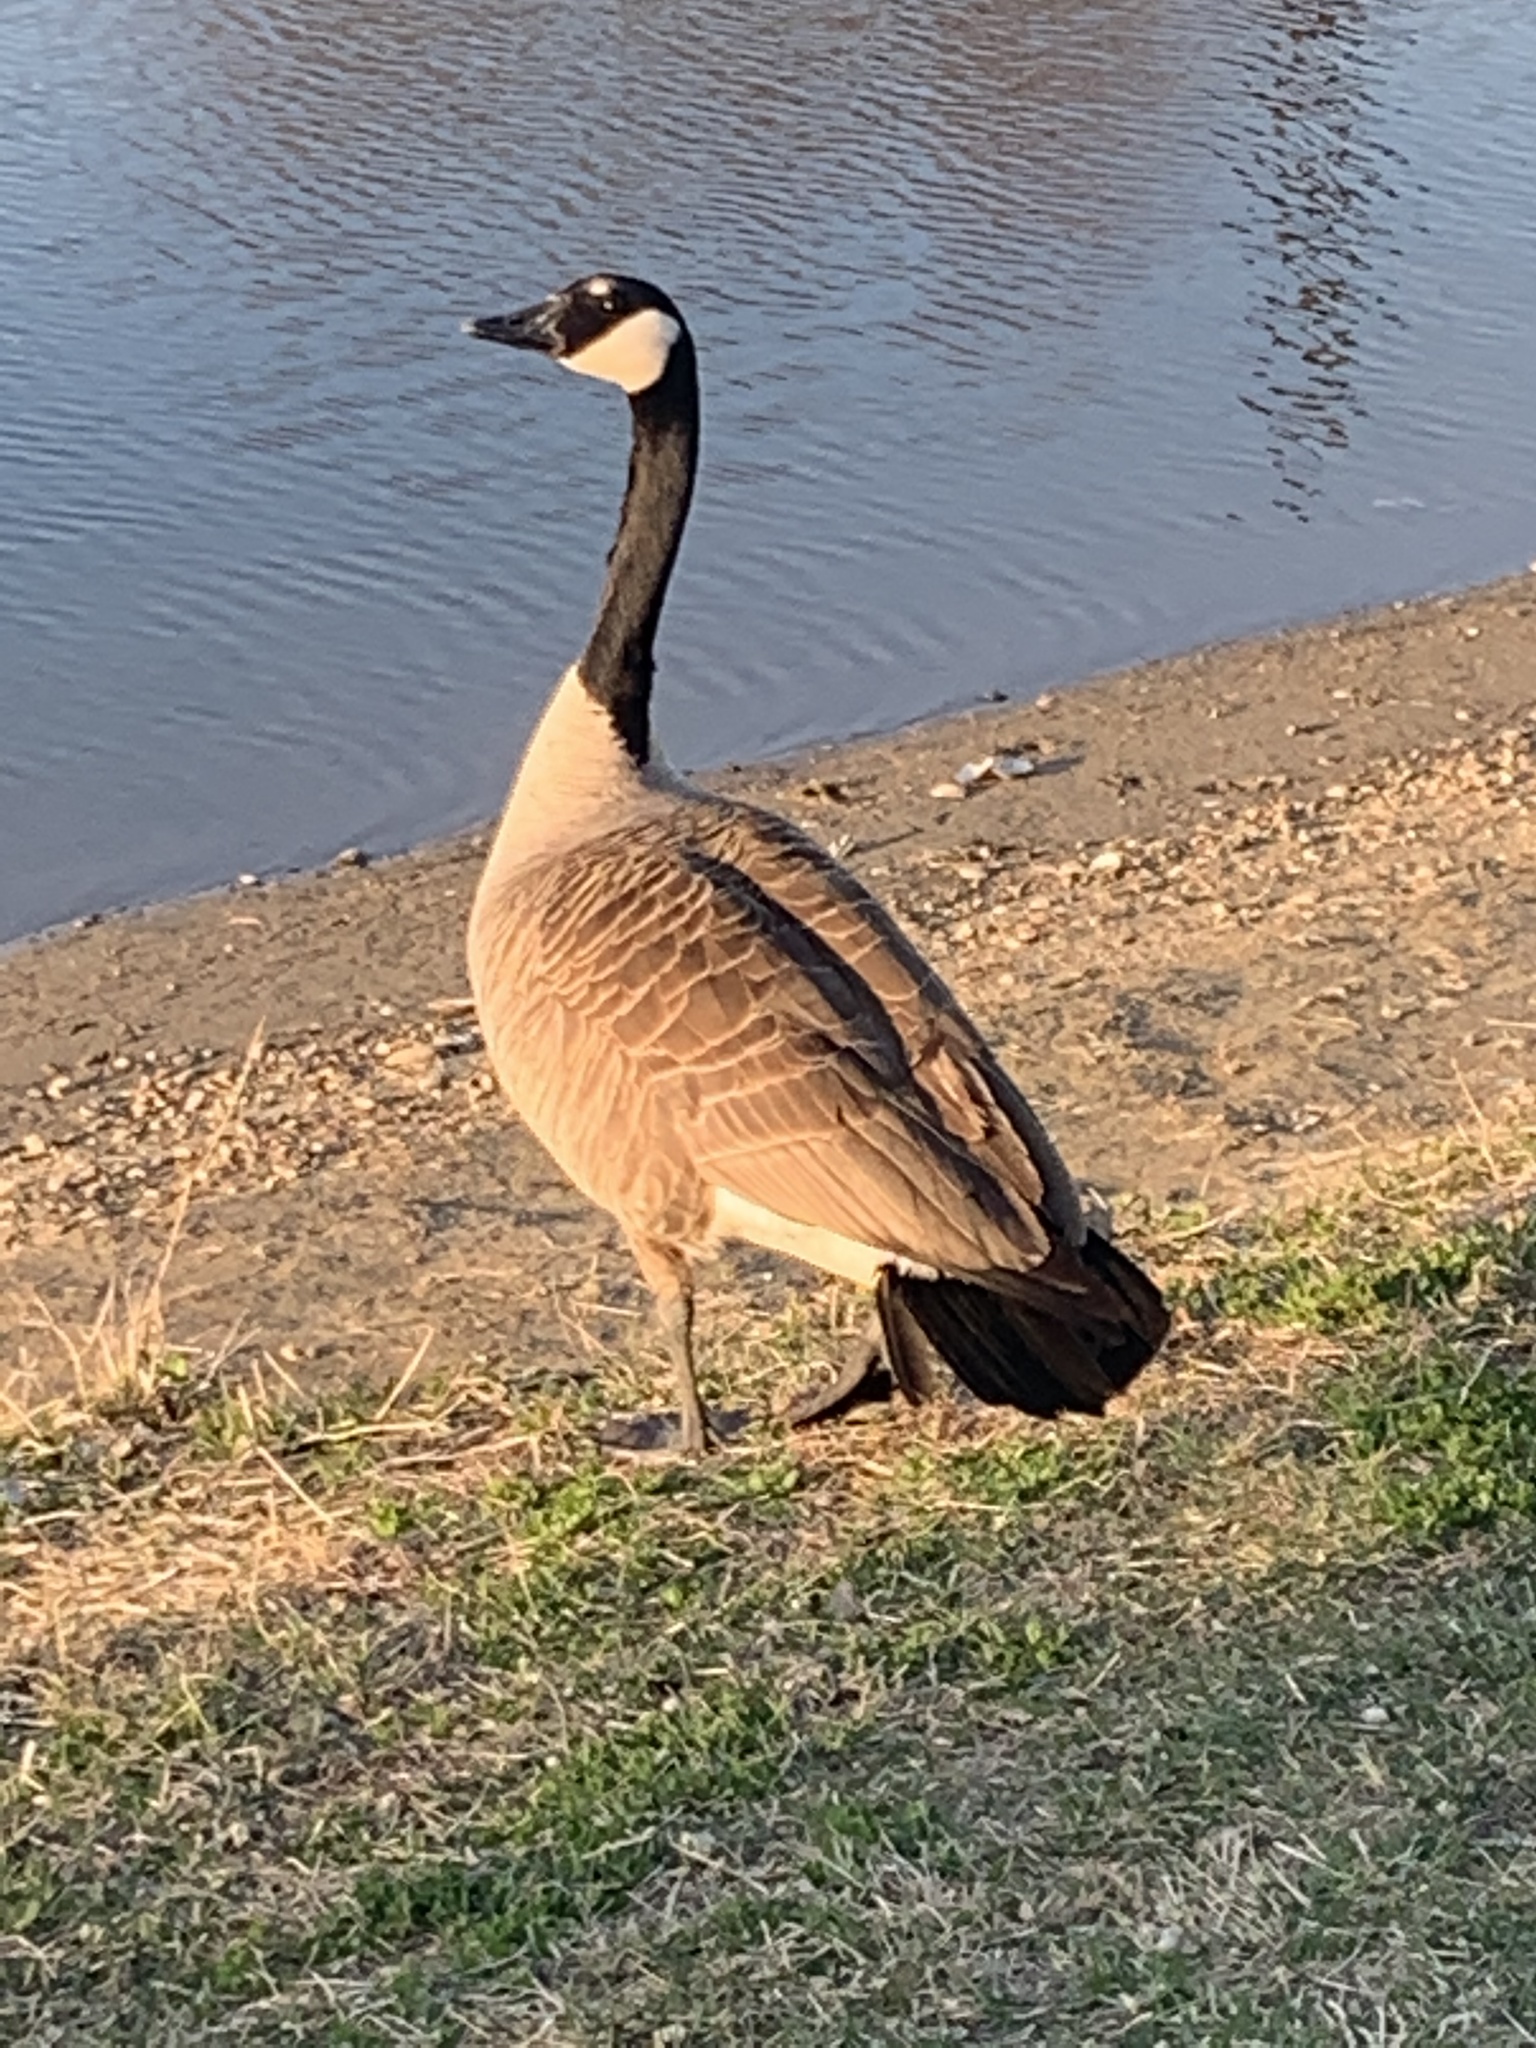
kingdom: Animalia
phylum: Chordata
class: Aves
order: Anseriformes
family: Anatidae
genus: Branta
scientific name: Branta canadensis
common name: Canada goose
